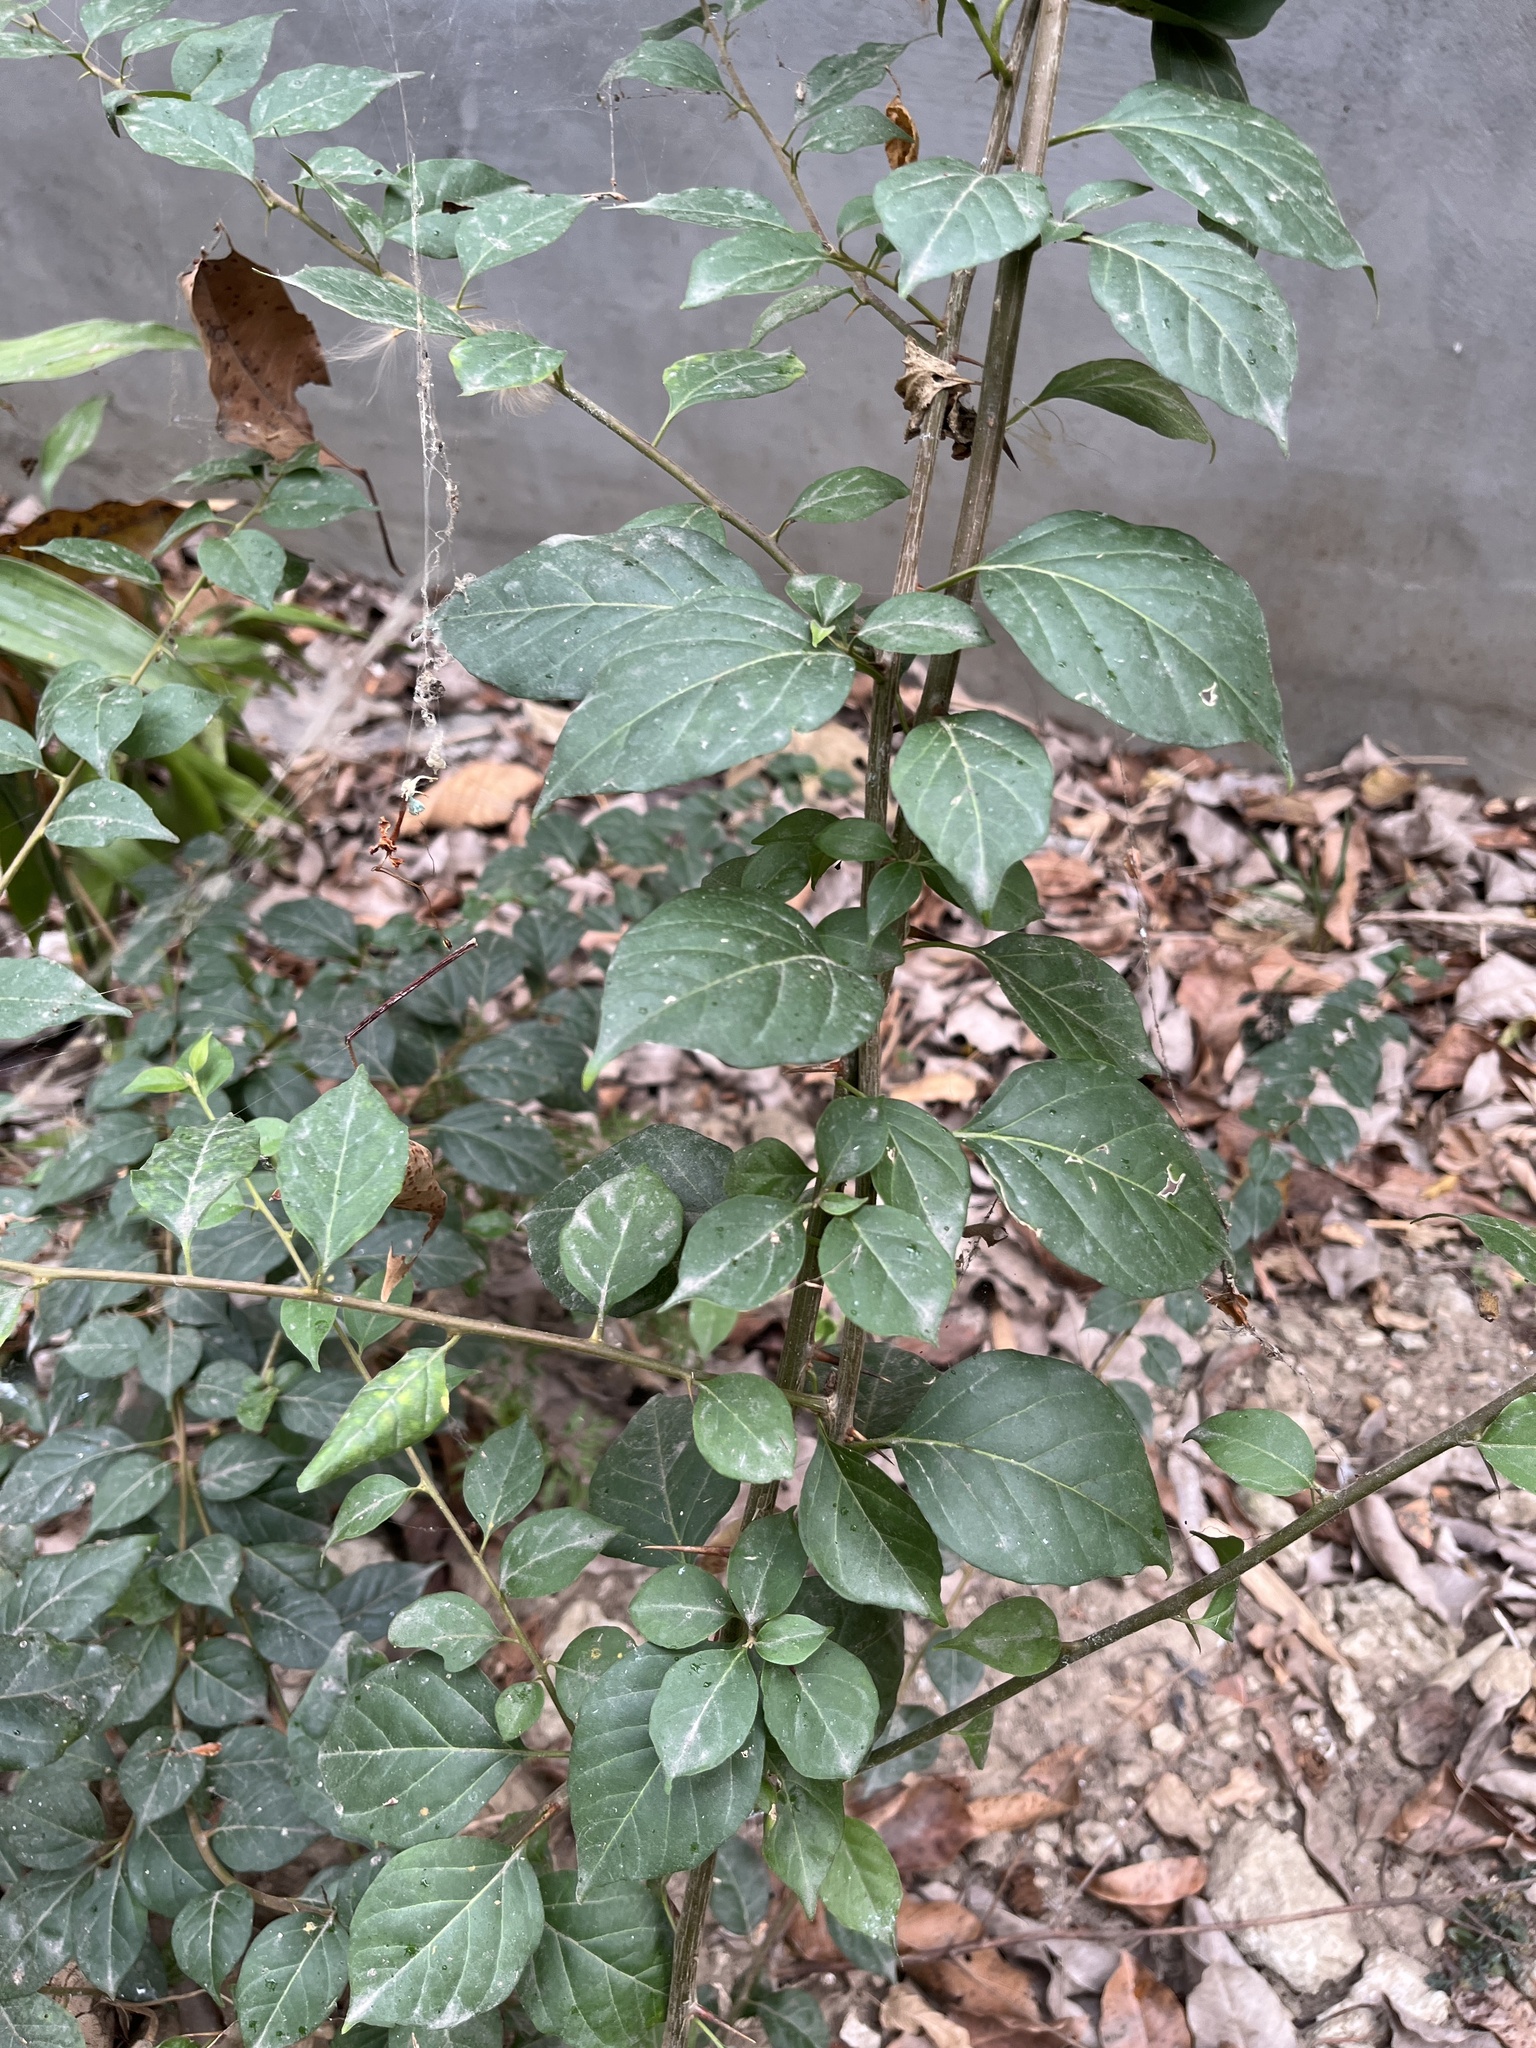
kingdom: Plantae
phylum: Tracheophyta
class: Magnoliopsida
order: Caryophyllales
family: Nyctaginaceae
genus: Pisonia
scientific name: Pisonia aculeata
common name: Cockspur vine
